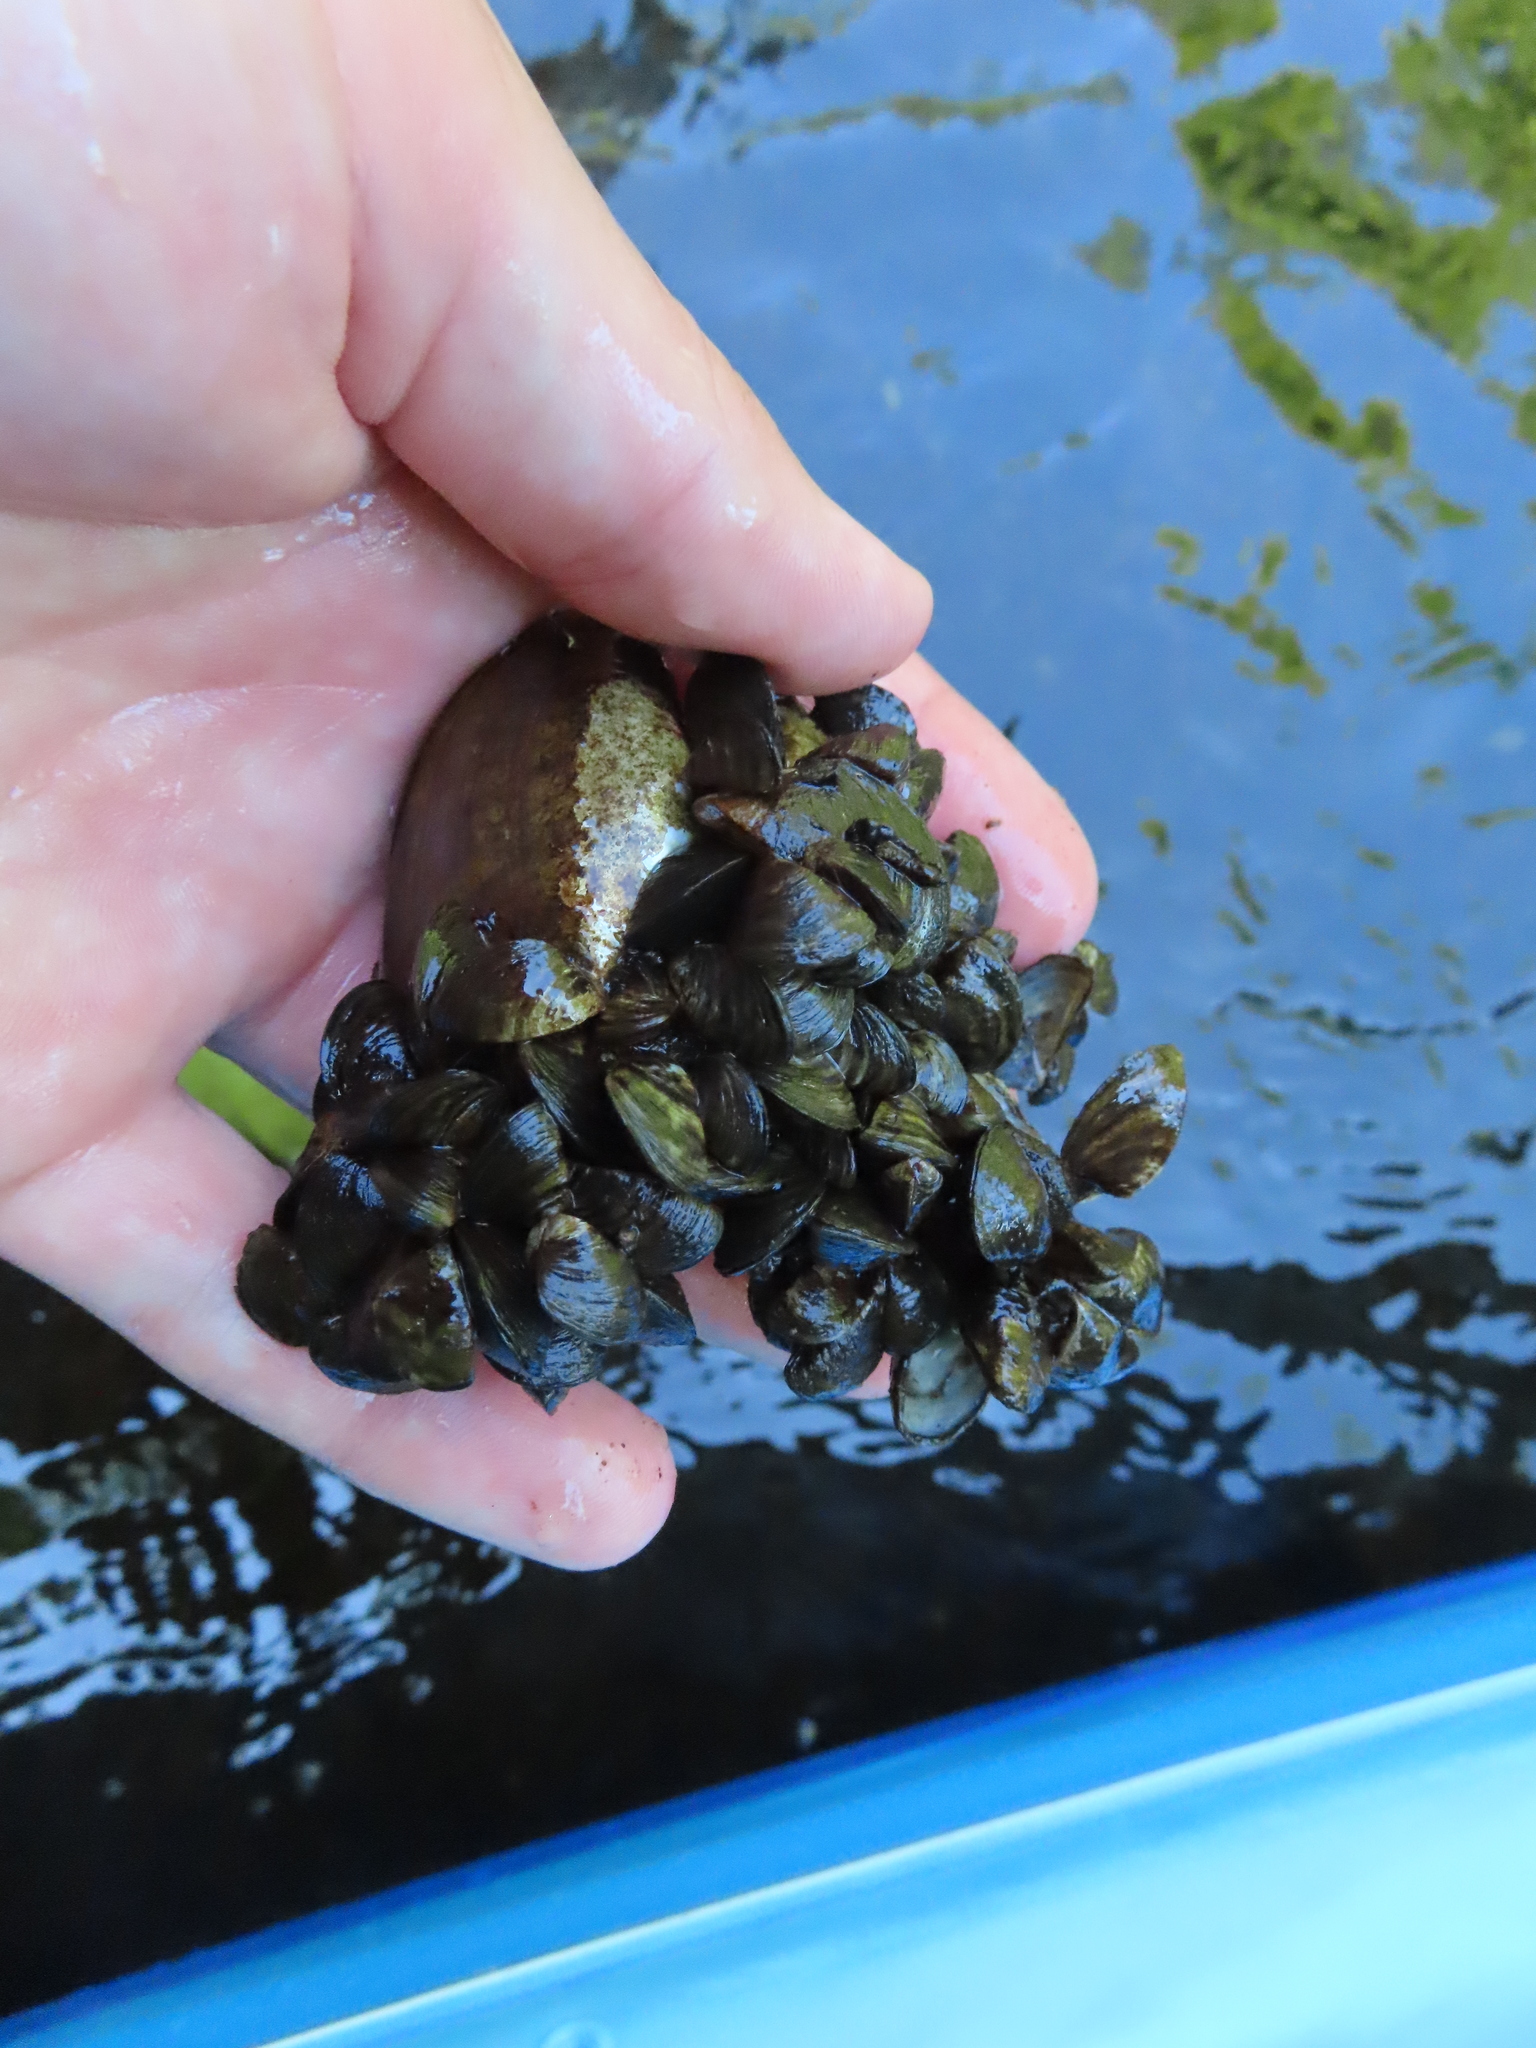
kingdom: Animalia
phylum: Mollusca
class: Bivalvia
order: Myida
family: Dreissenidae
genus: Dreissena
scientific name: Dreissena polymorpha
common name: Zebra mussel
